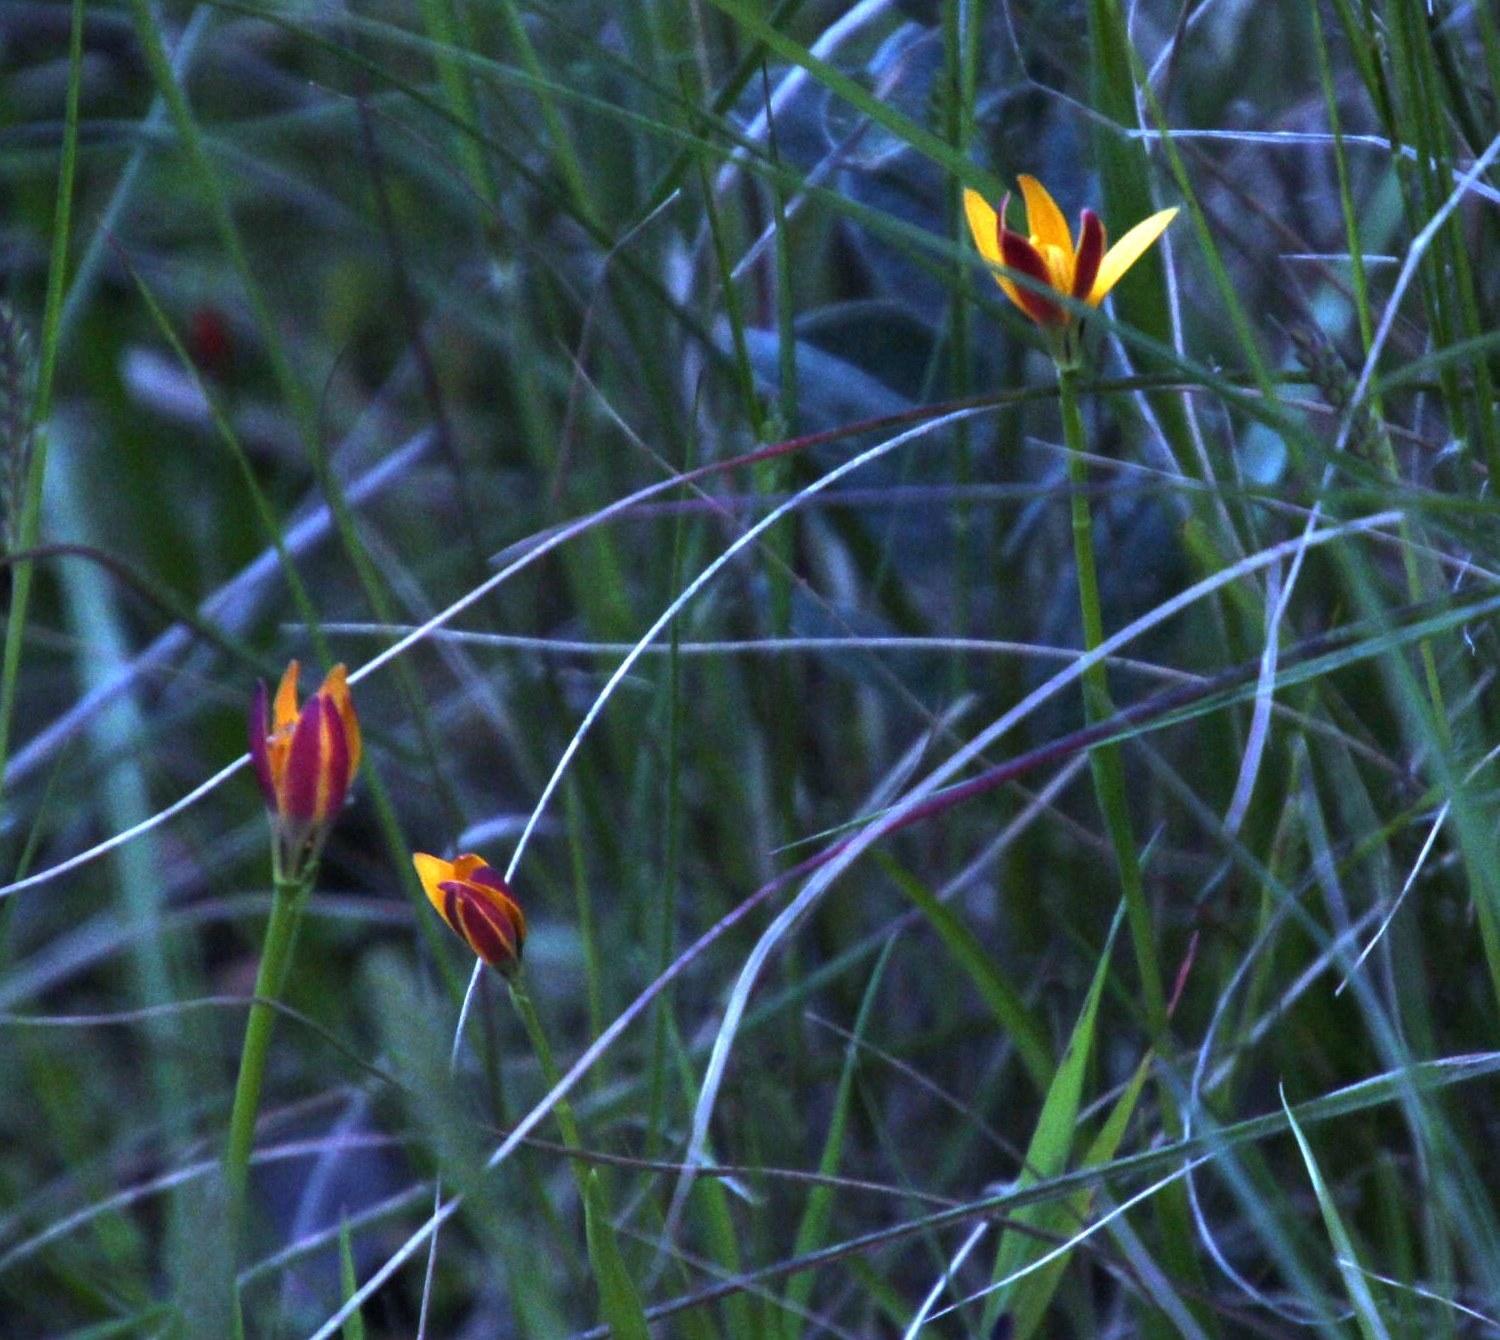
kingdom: Plantae
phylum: Tracheophyta
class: Liliopsida
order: Liliales
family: Colchicaceae
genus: Baeometra
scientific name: Baeometra uniflora
